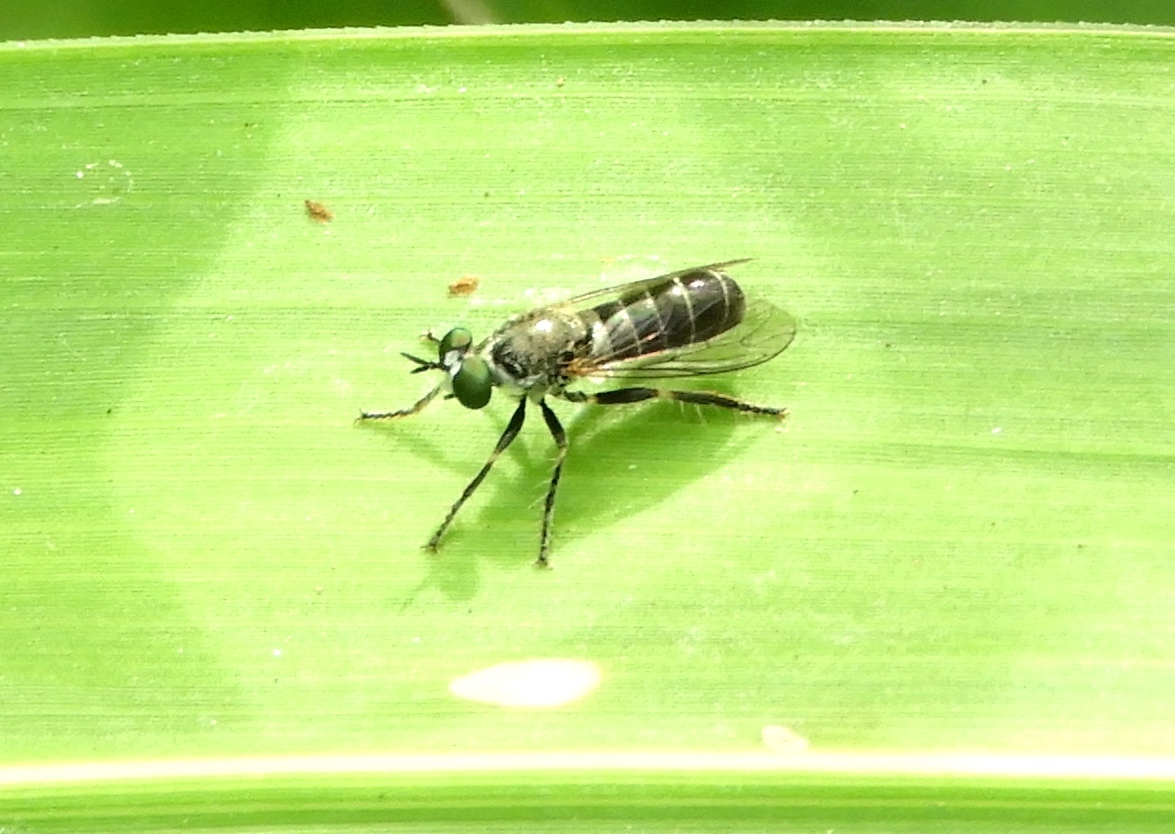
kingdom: Animalia
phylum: Arthropoda
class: Insecta
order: Diptera
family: Asilidae
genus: Atomosia
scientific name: Atomosia
